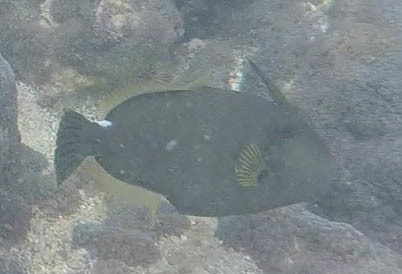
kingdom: Animalia
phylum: Chordata
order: Tetraodontiformes
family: Monacanthidae
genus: Cantherhines
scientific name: Cantherhines sandwichiensis
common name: Sandwich isle file
